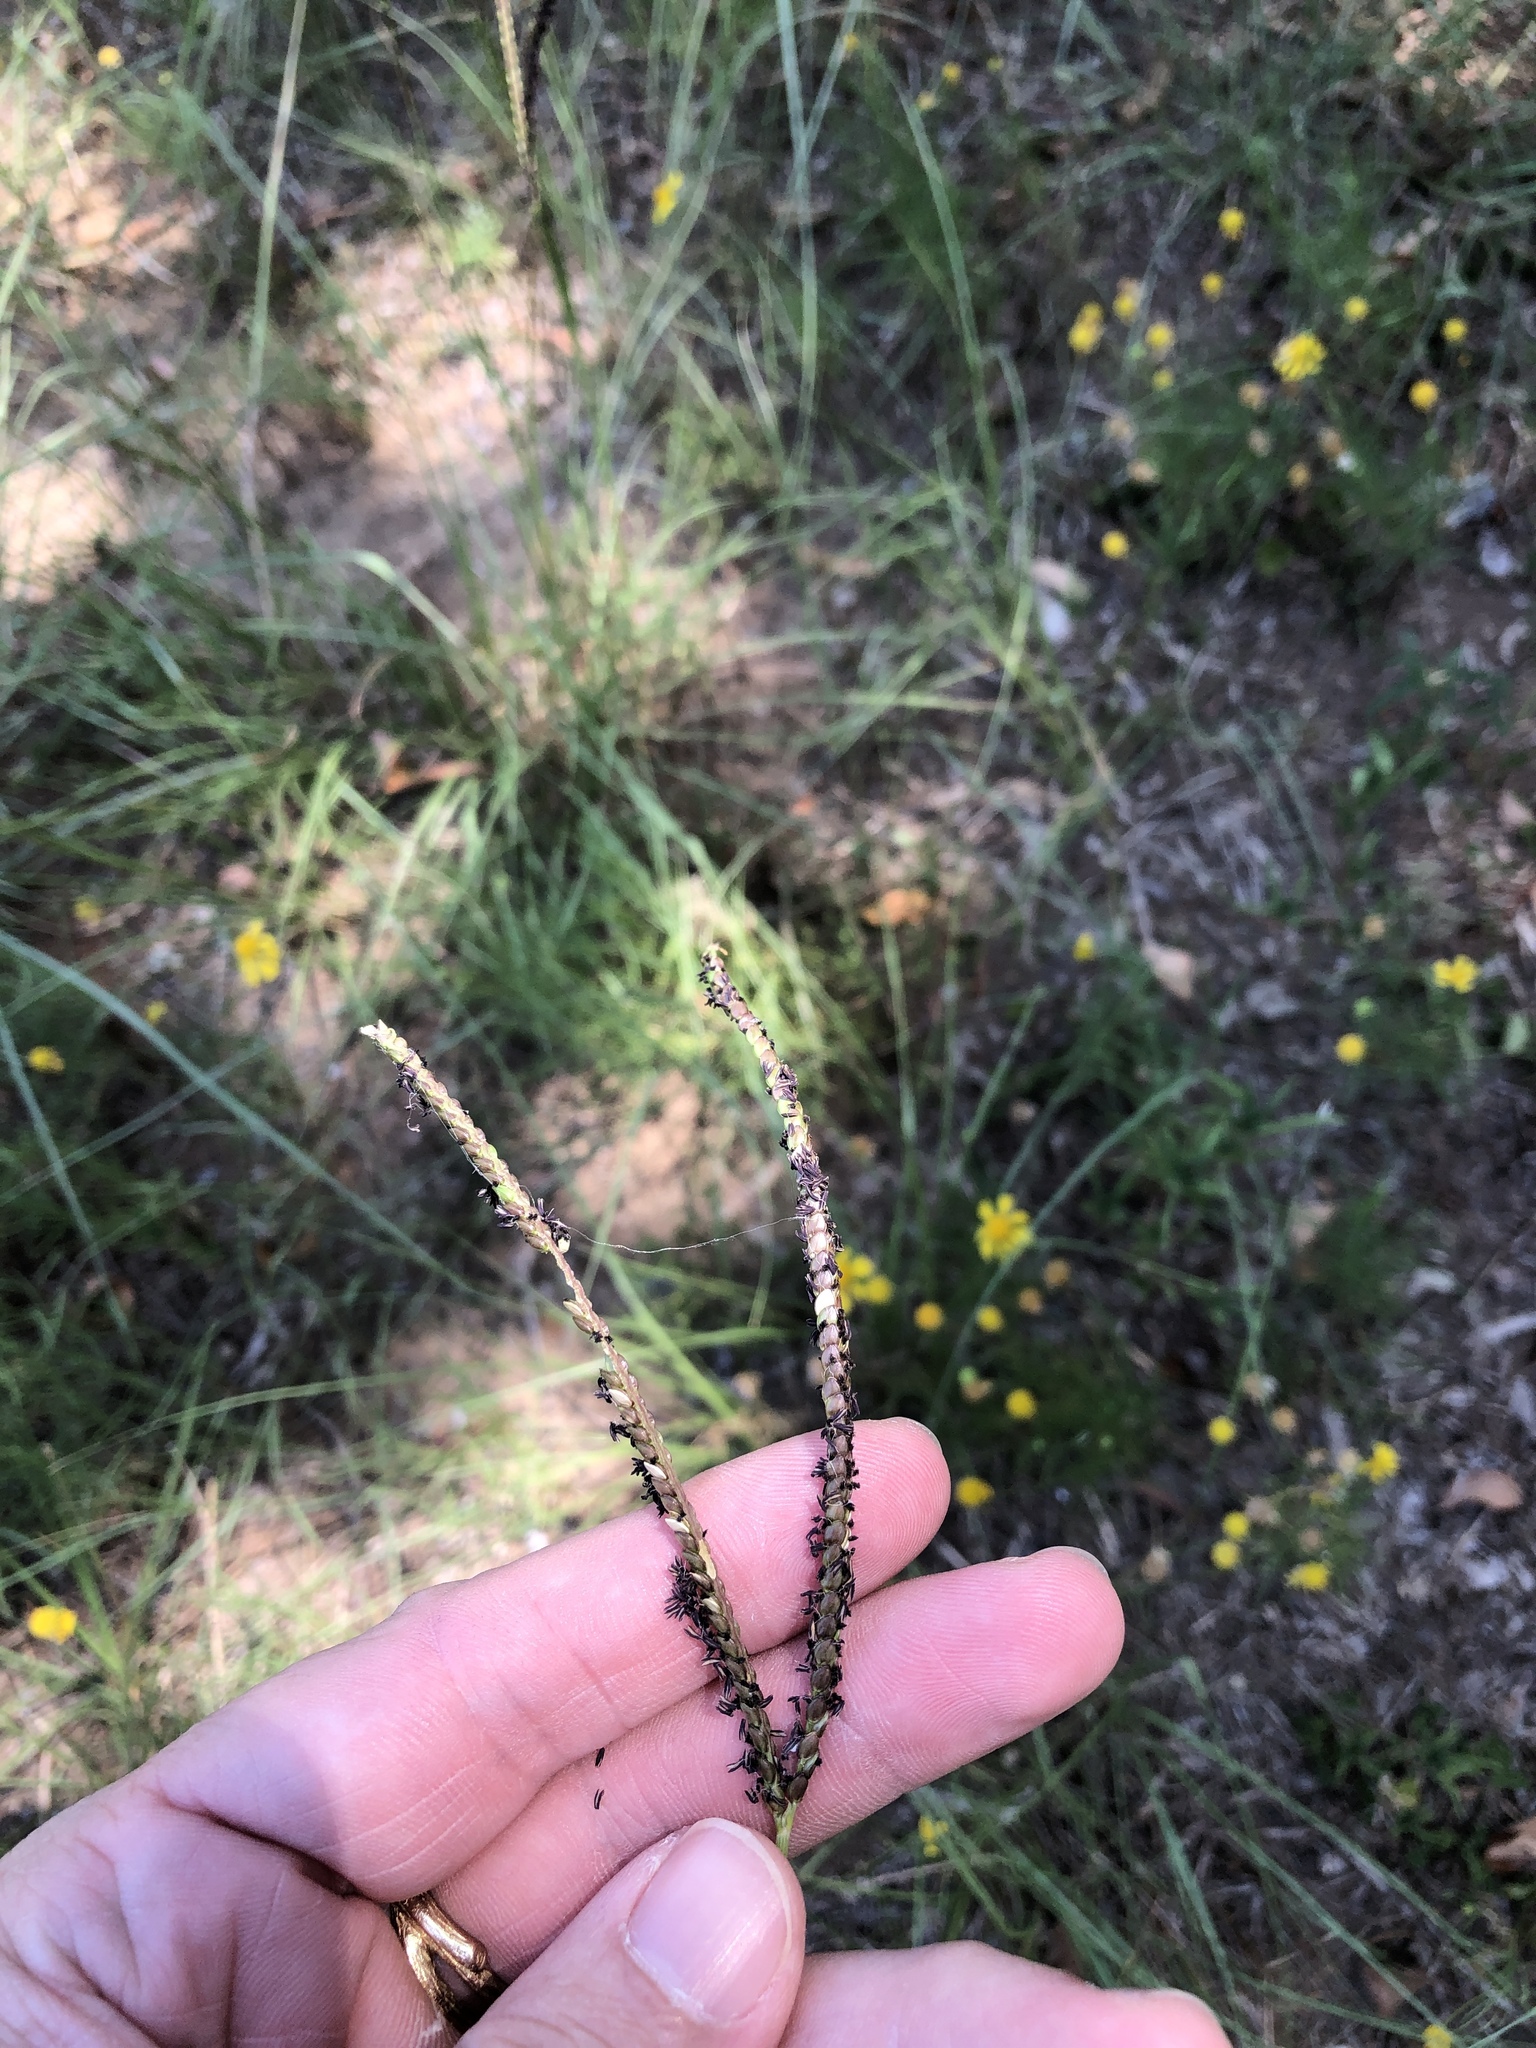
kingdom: Plantae
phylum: Tracheophyta
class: Liliopsida
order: Poales
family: Poaceae
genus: Paspalum
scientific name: Paspalum notatum
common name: Bahiagrass
